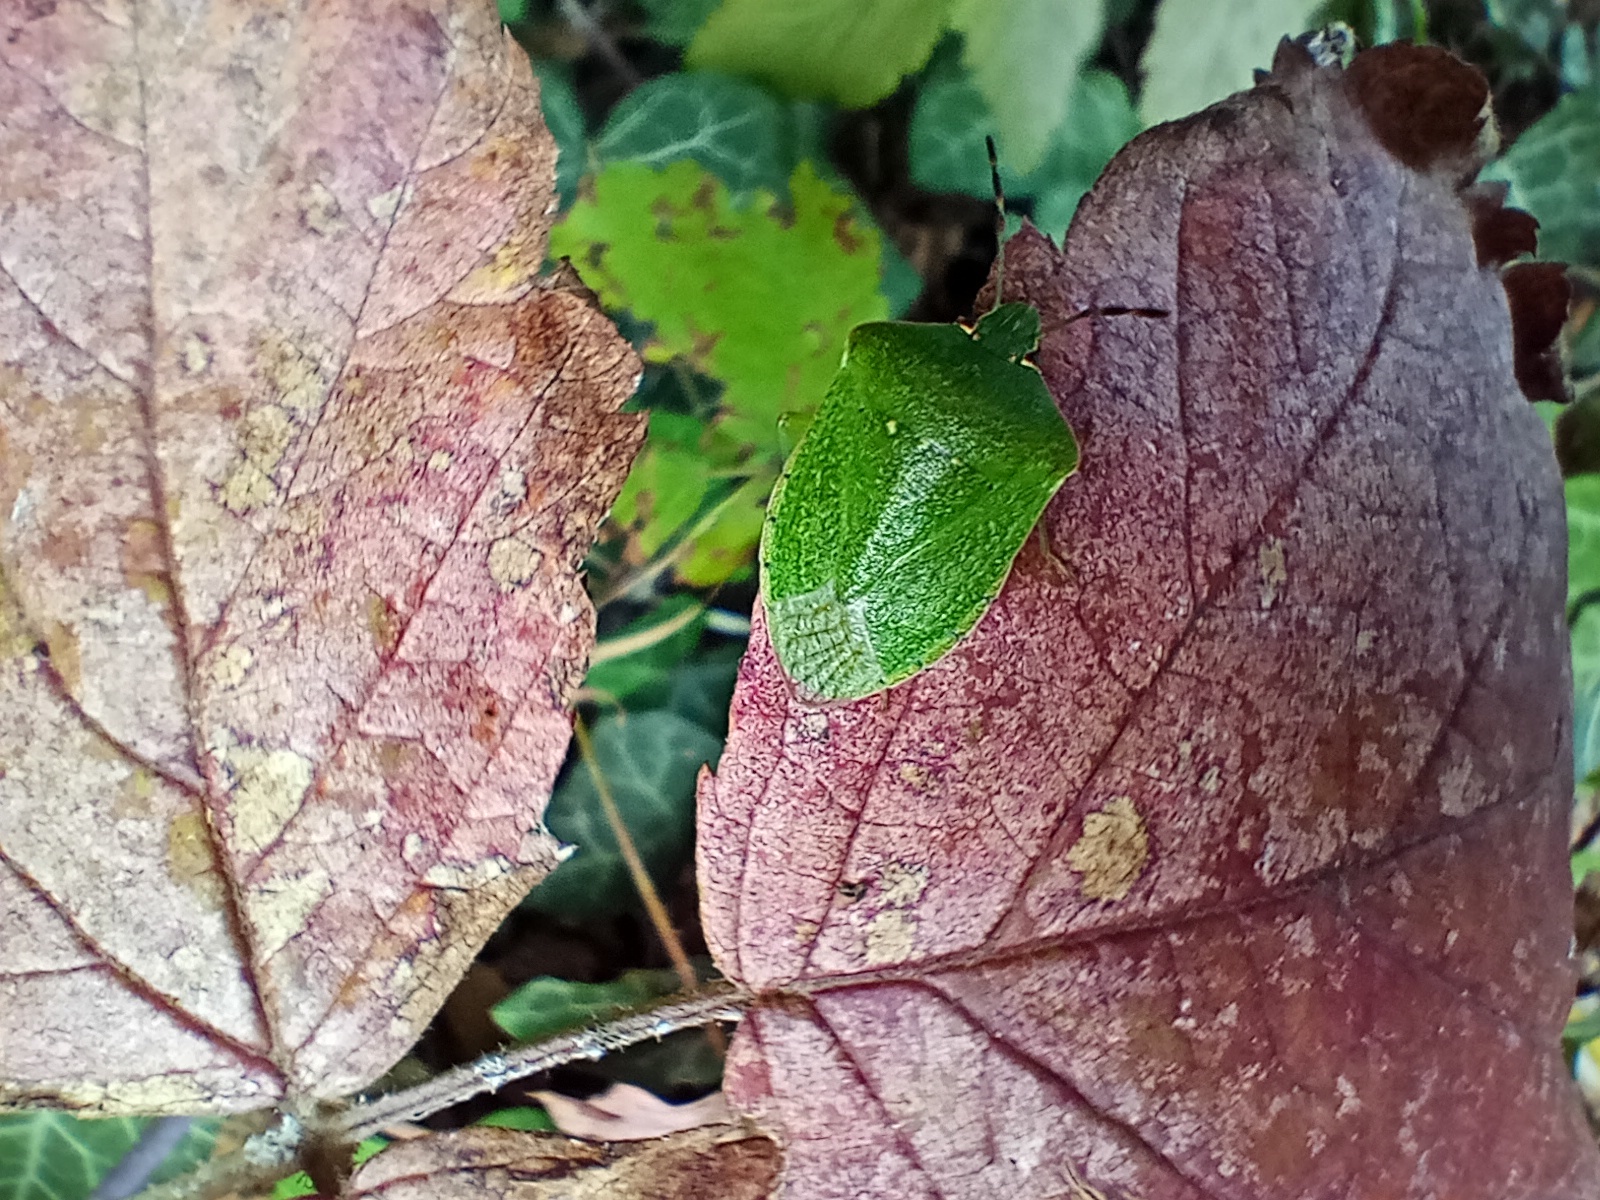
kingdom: Animalia
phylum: Arthropoda
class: Insecta
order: Hemiptera
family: Pentatomidae
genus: Nezara
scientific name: Nezara viridula
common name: Southern green stink bug
